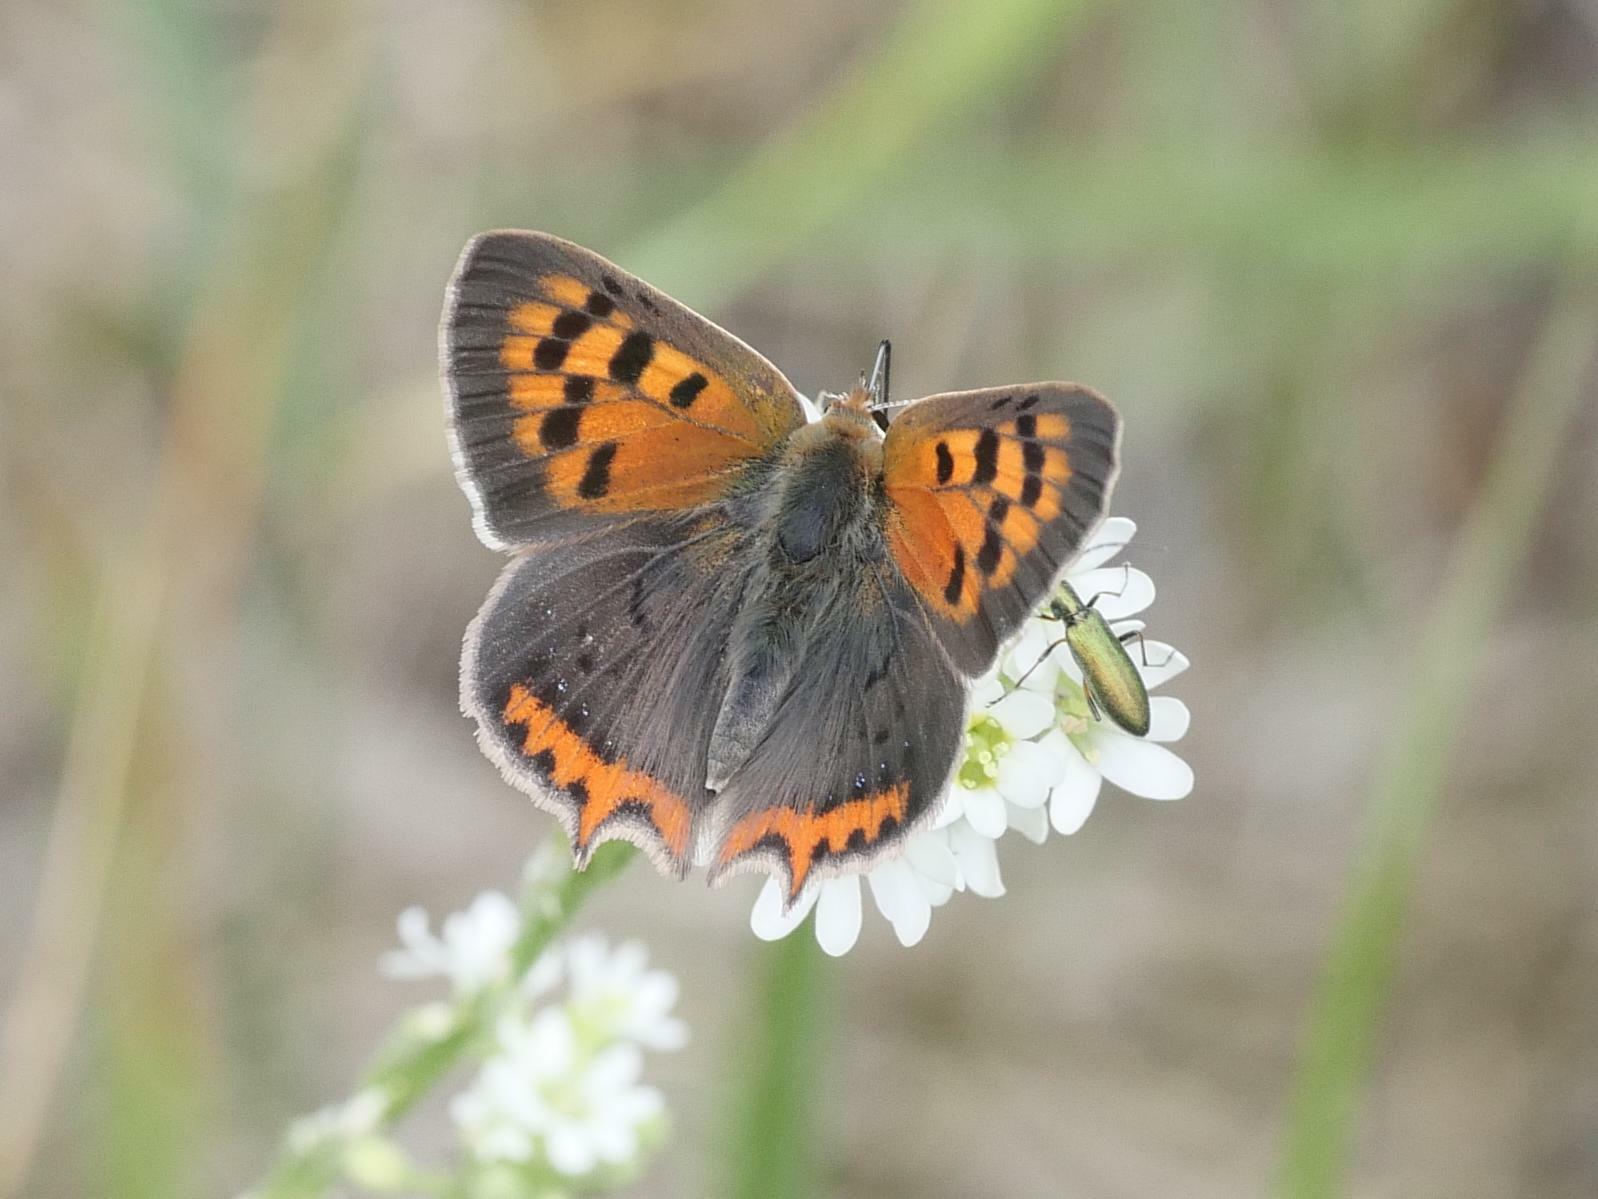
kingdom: Animalia
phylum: Arthropoda
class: Insecta
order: Lepidoptera
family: Lycaenidae
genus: Lycaena
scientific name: Lycaena phlaeas
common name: Small copper
